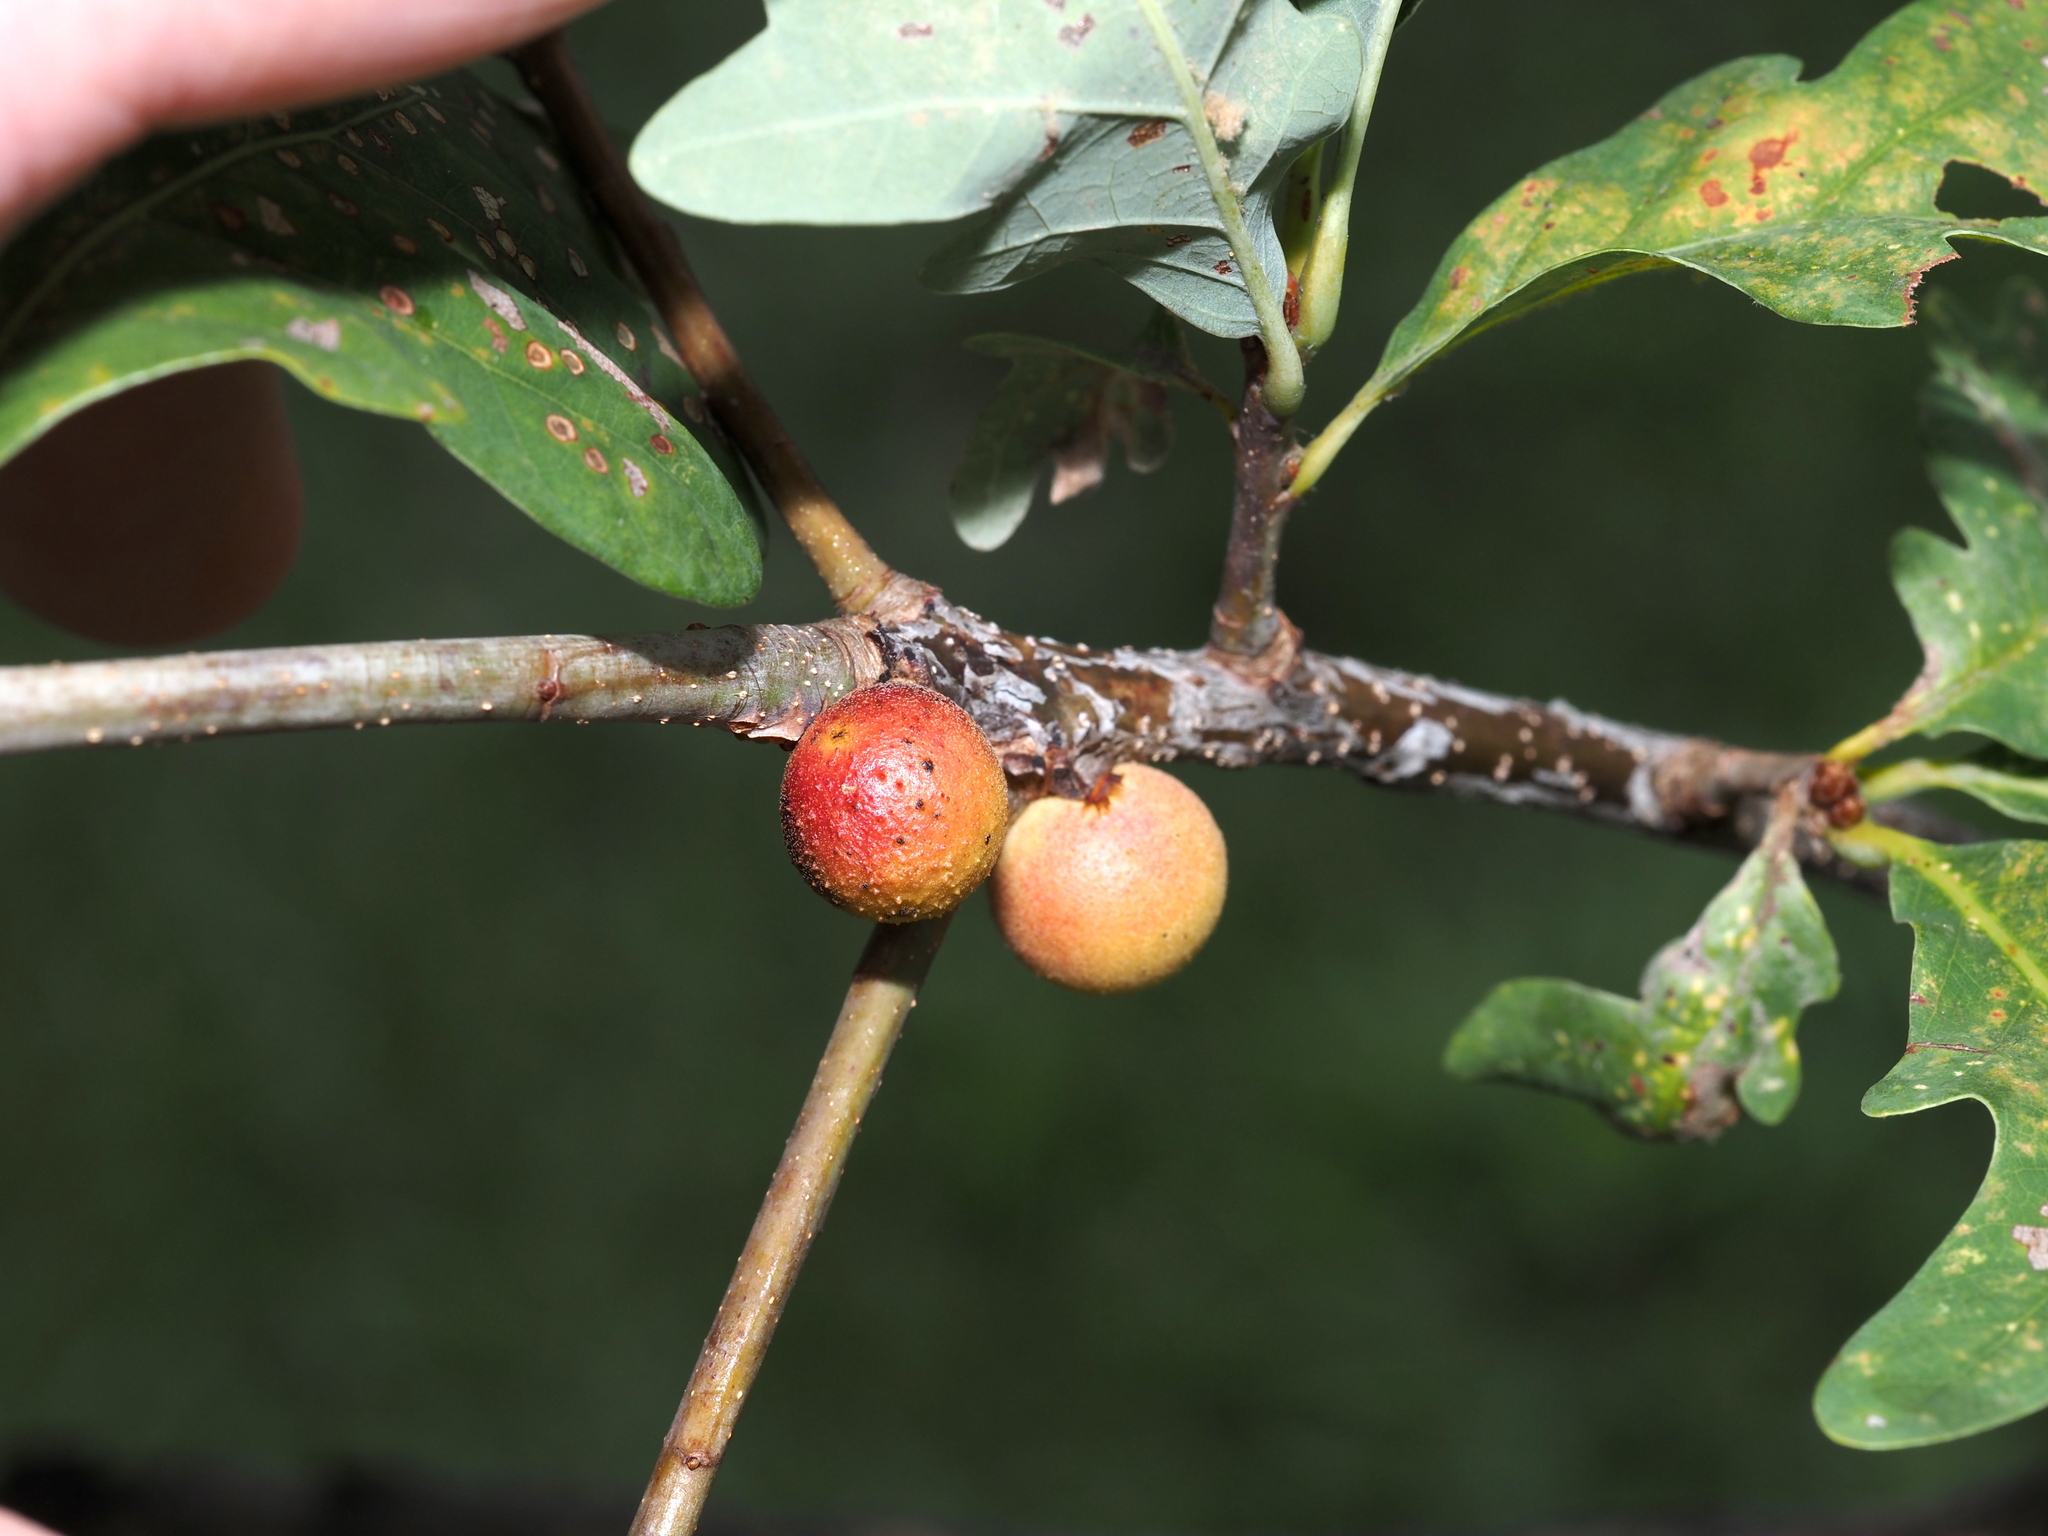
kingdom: Animalia
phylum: Arthropoda
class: Insecta
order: Hymenoptera
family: Cynipidae
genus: Disholcaspis
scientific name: Disholcaspis quercusglobulus
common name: Round bullet gall wasp
